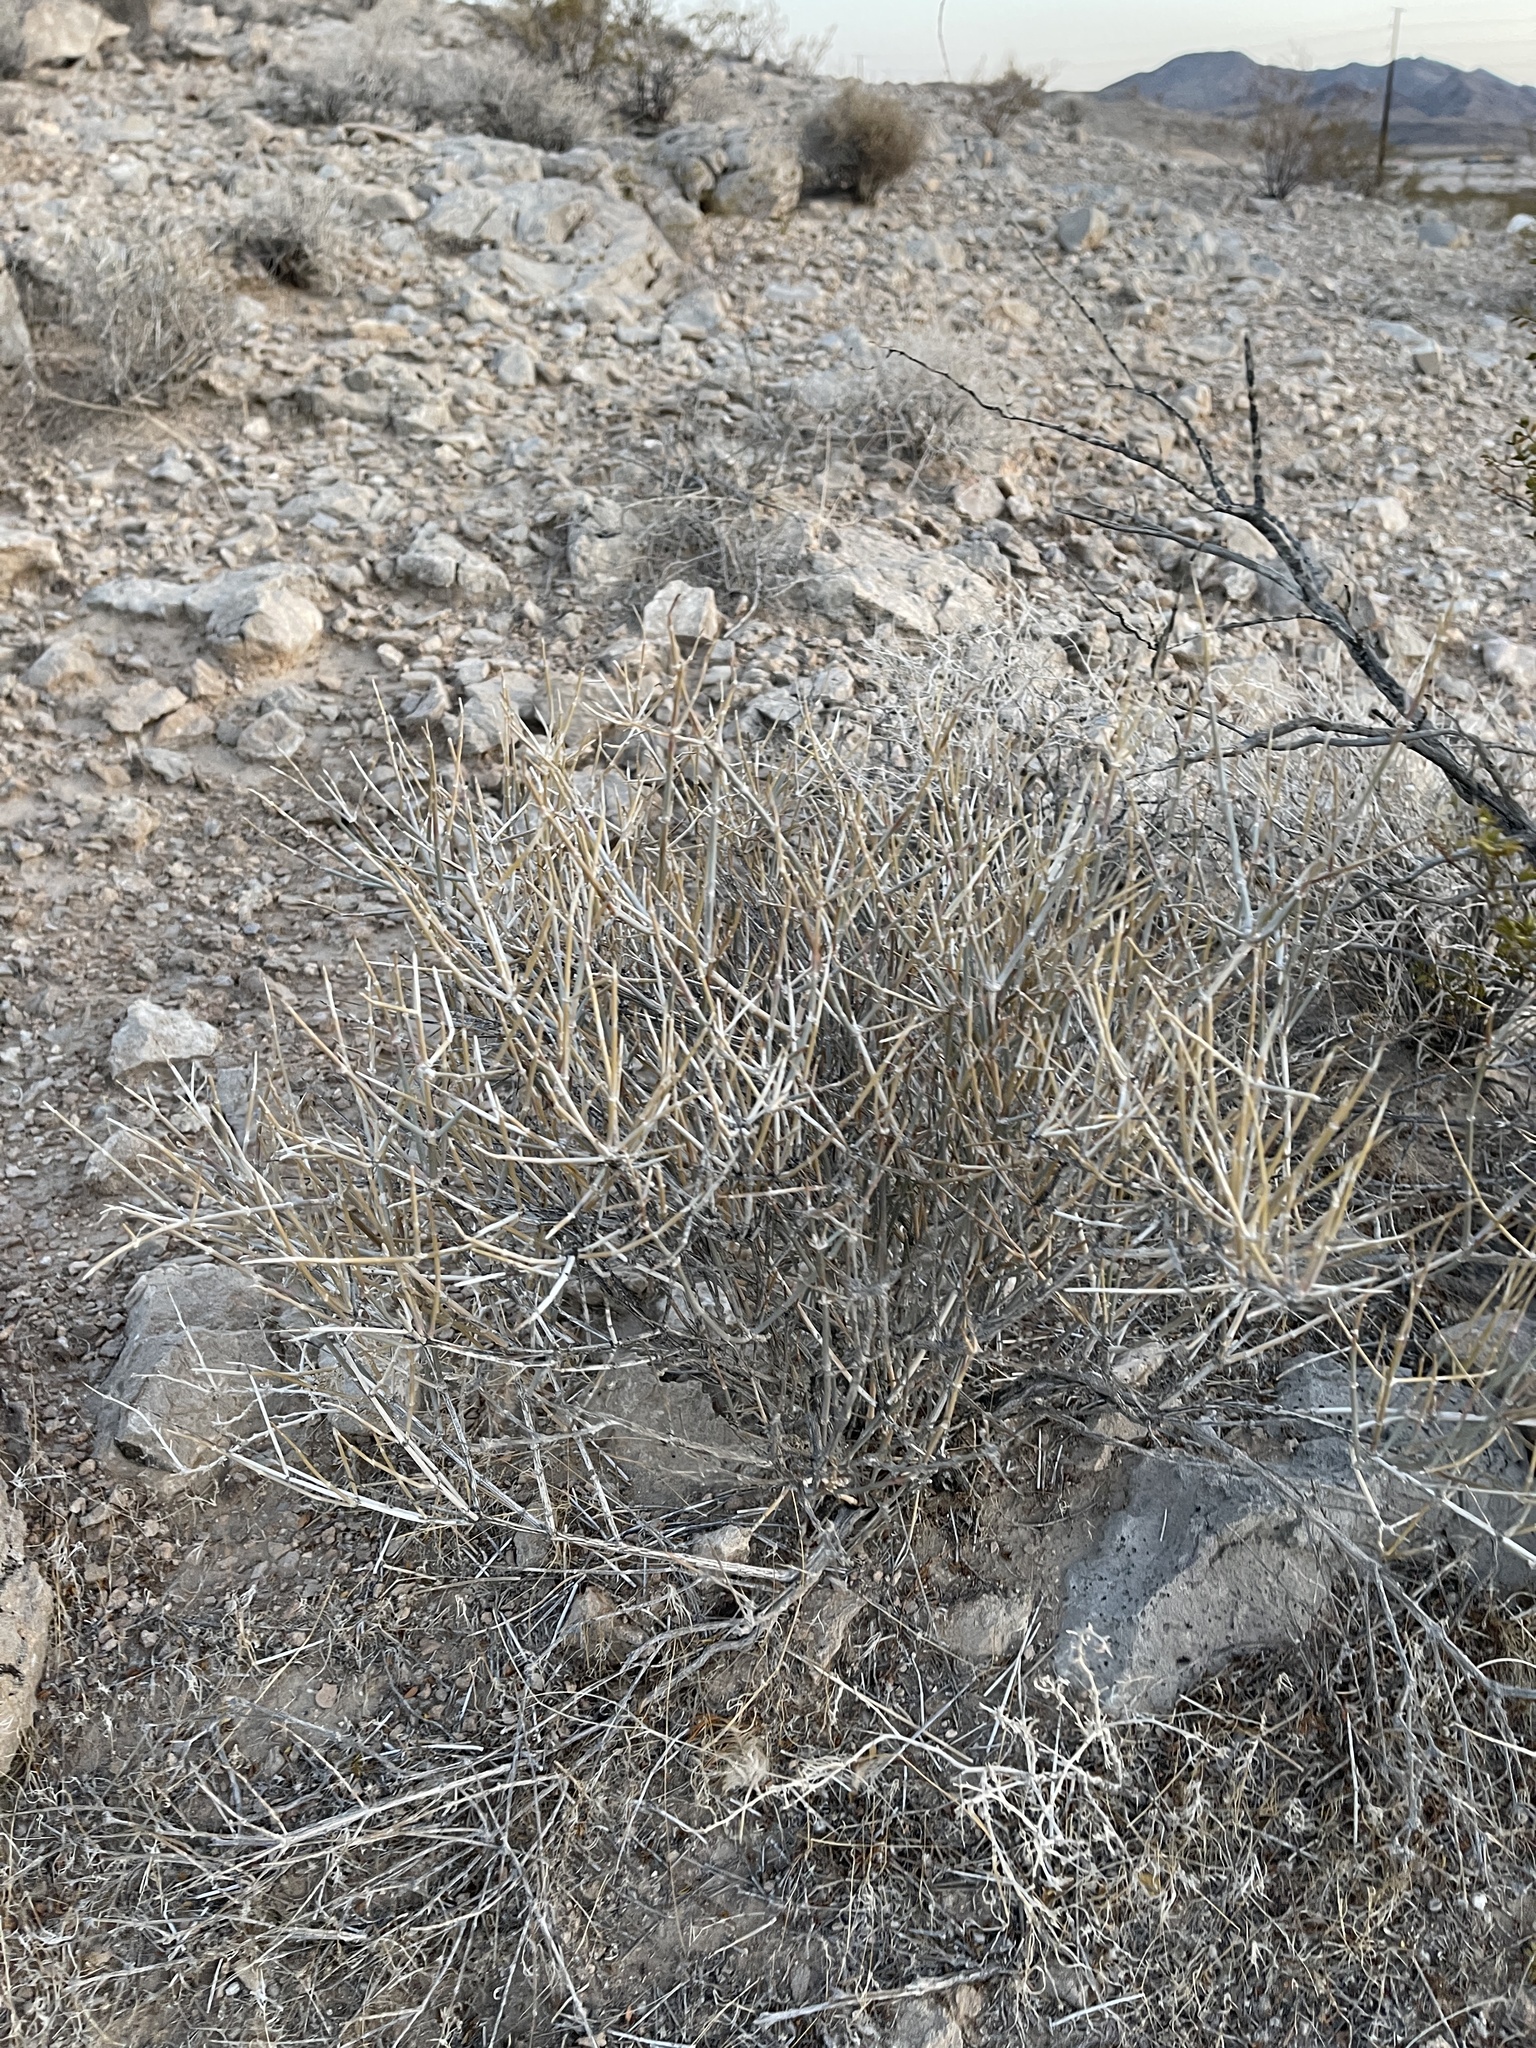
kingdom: Plantae
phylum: Tracheophyta
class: Gnetopsida
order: Ephedrales
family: Ephedraceae
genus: Ephedra
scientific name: Ephedra nevadensis
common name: Gray ephedra
